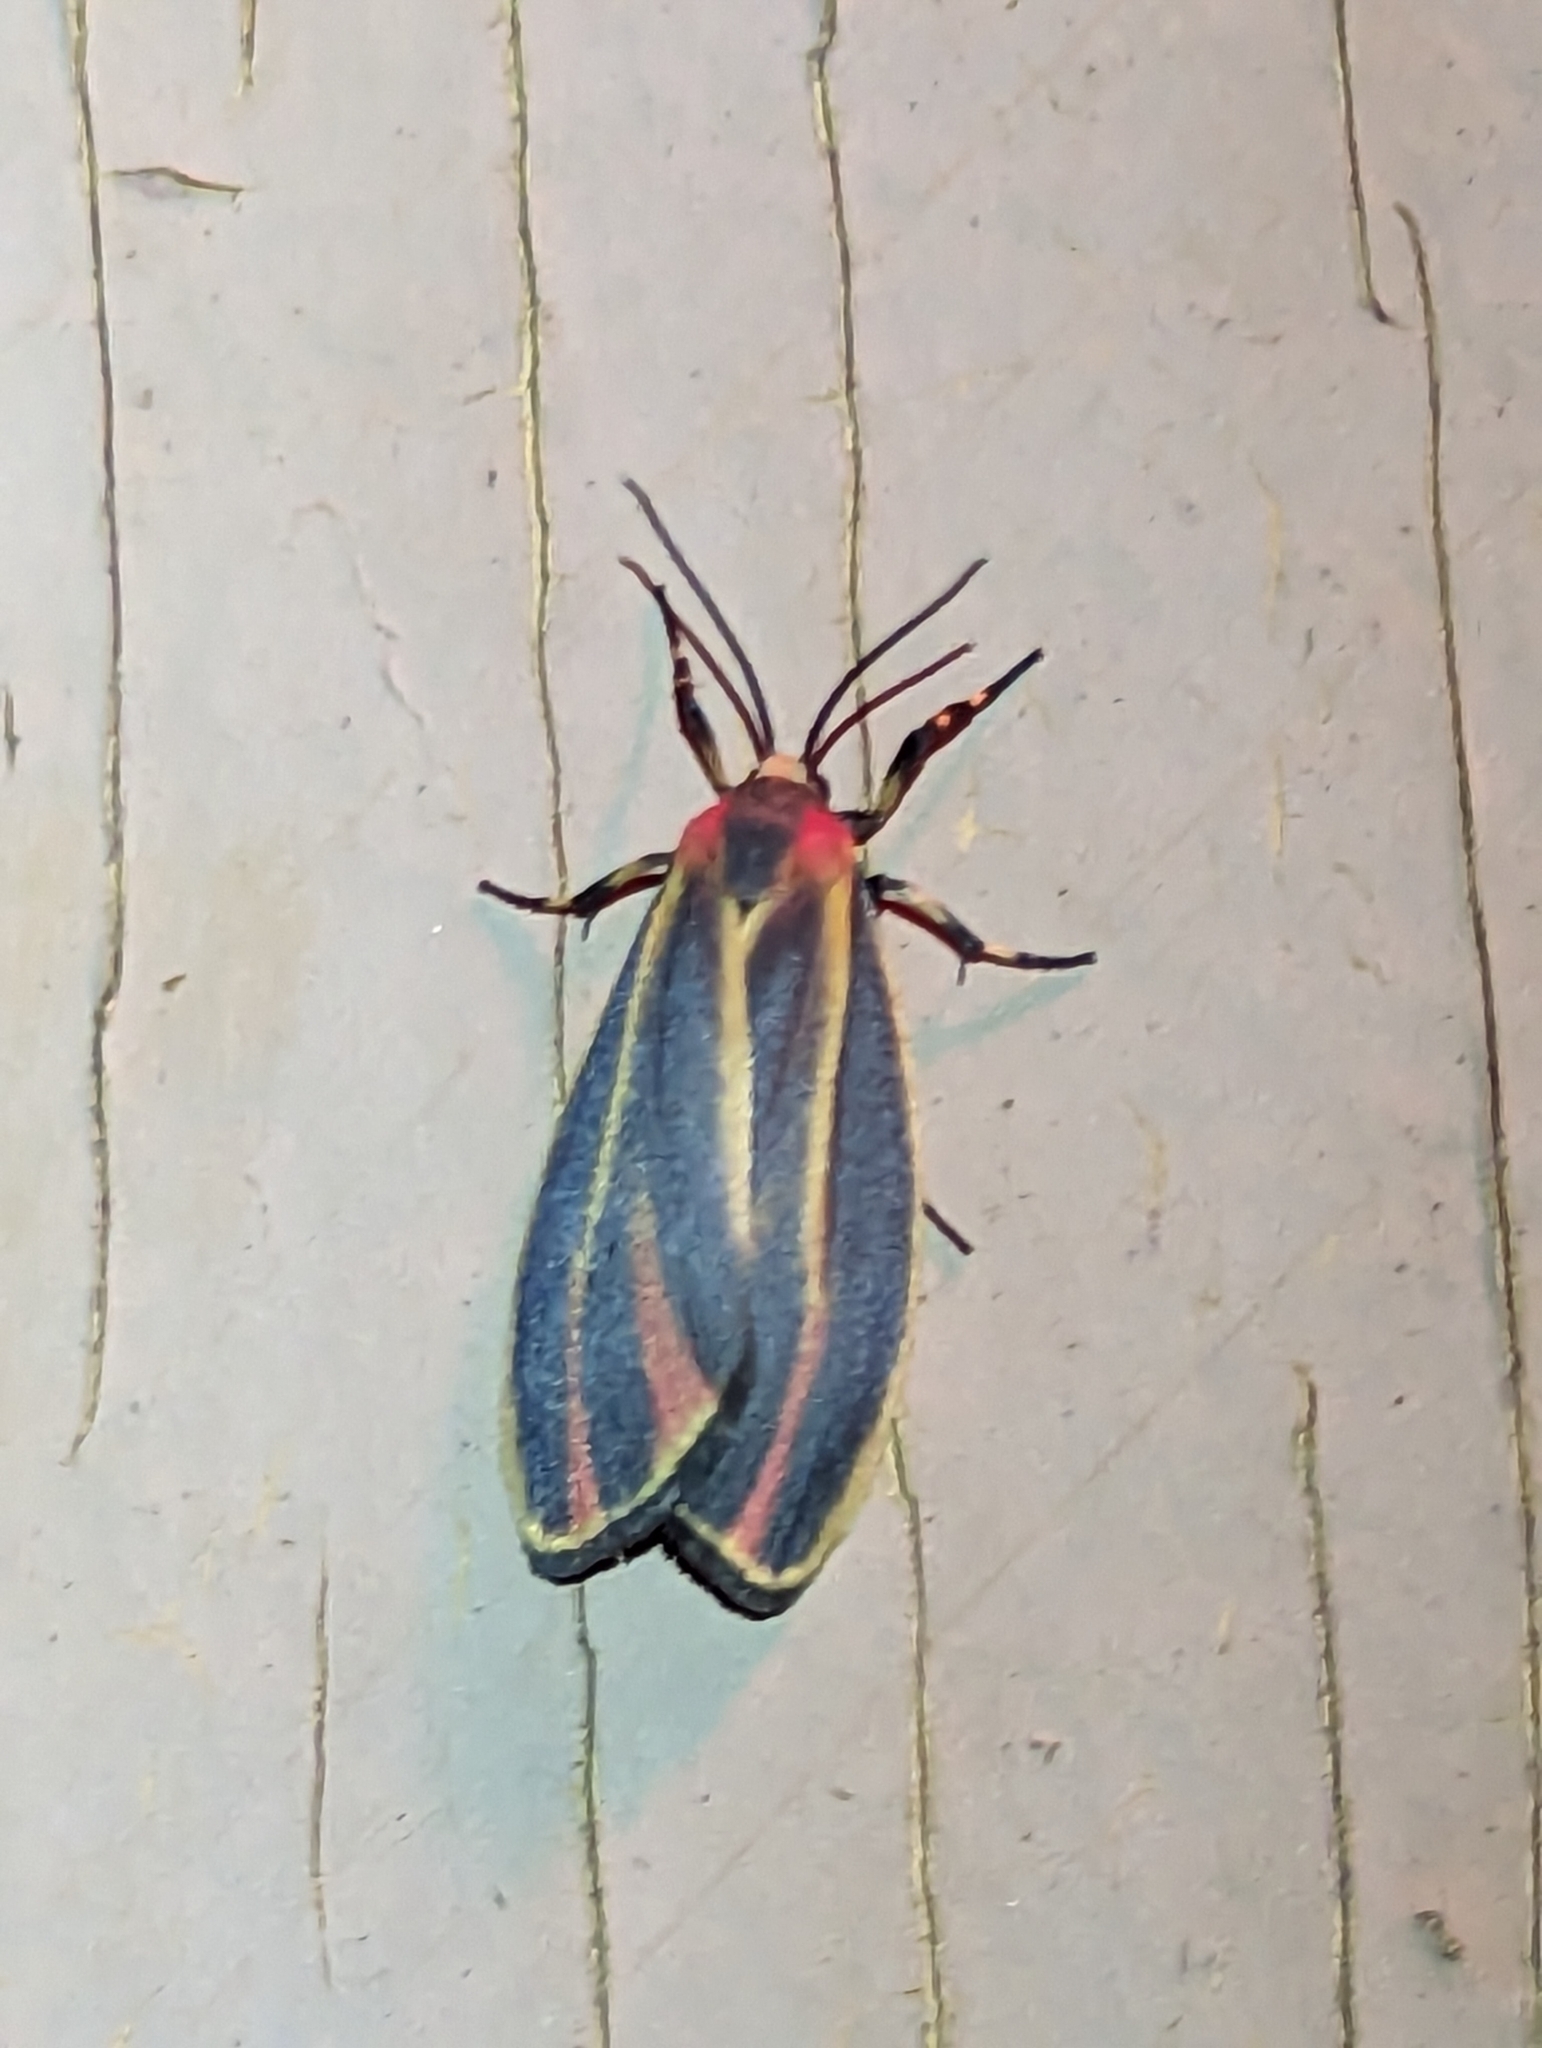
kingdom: Animalia
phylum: Arthropoda
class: Insecta
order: Lepidoptera
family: Erebidae
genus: Hypoprepia
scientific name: Hypoprepia fucosa
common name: Painted lichen moth
